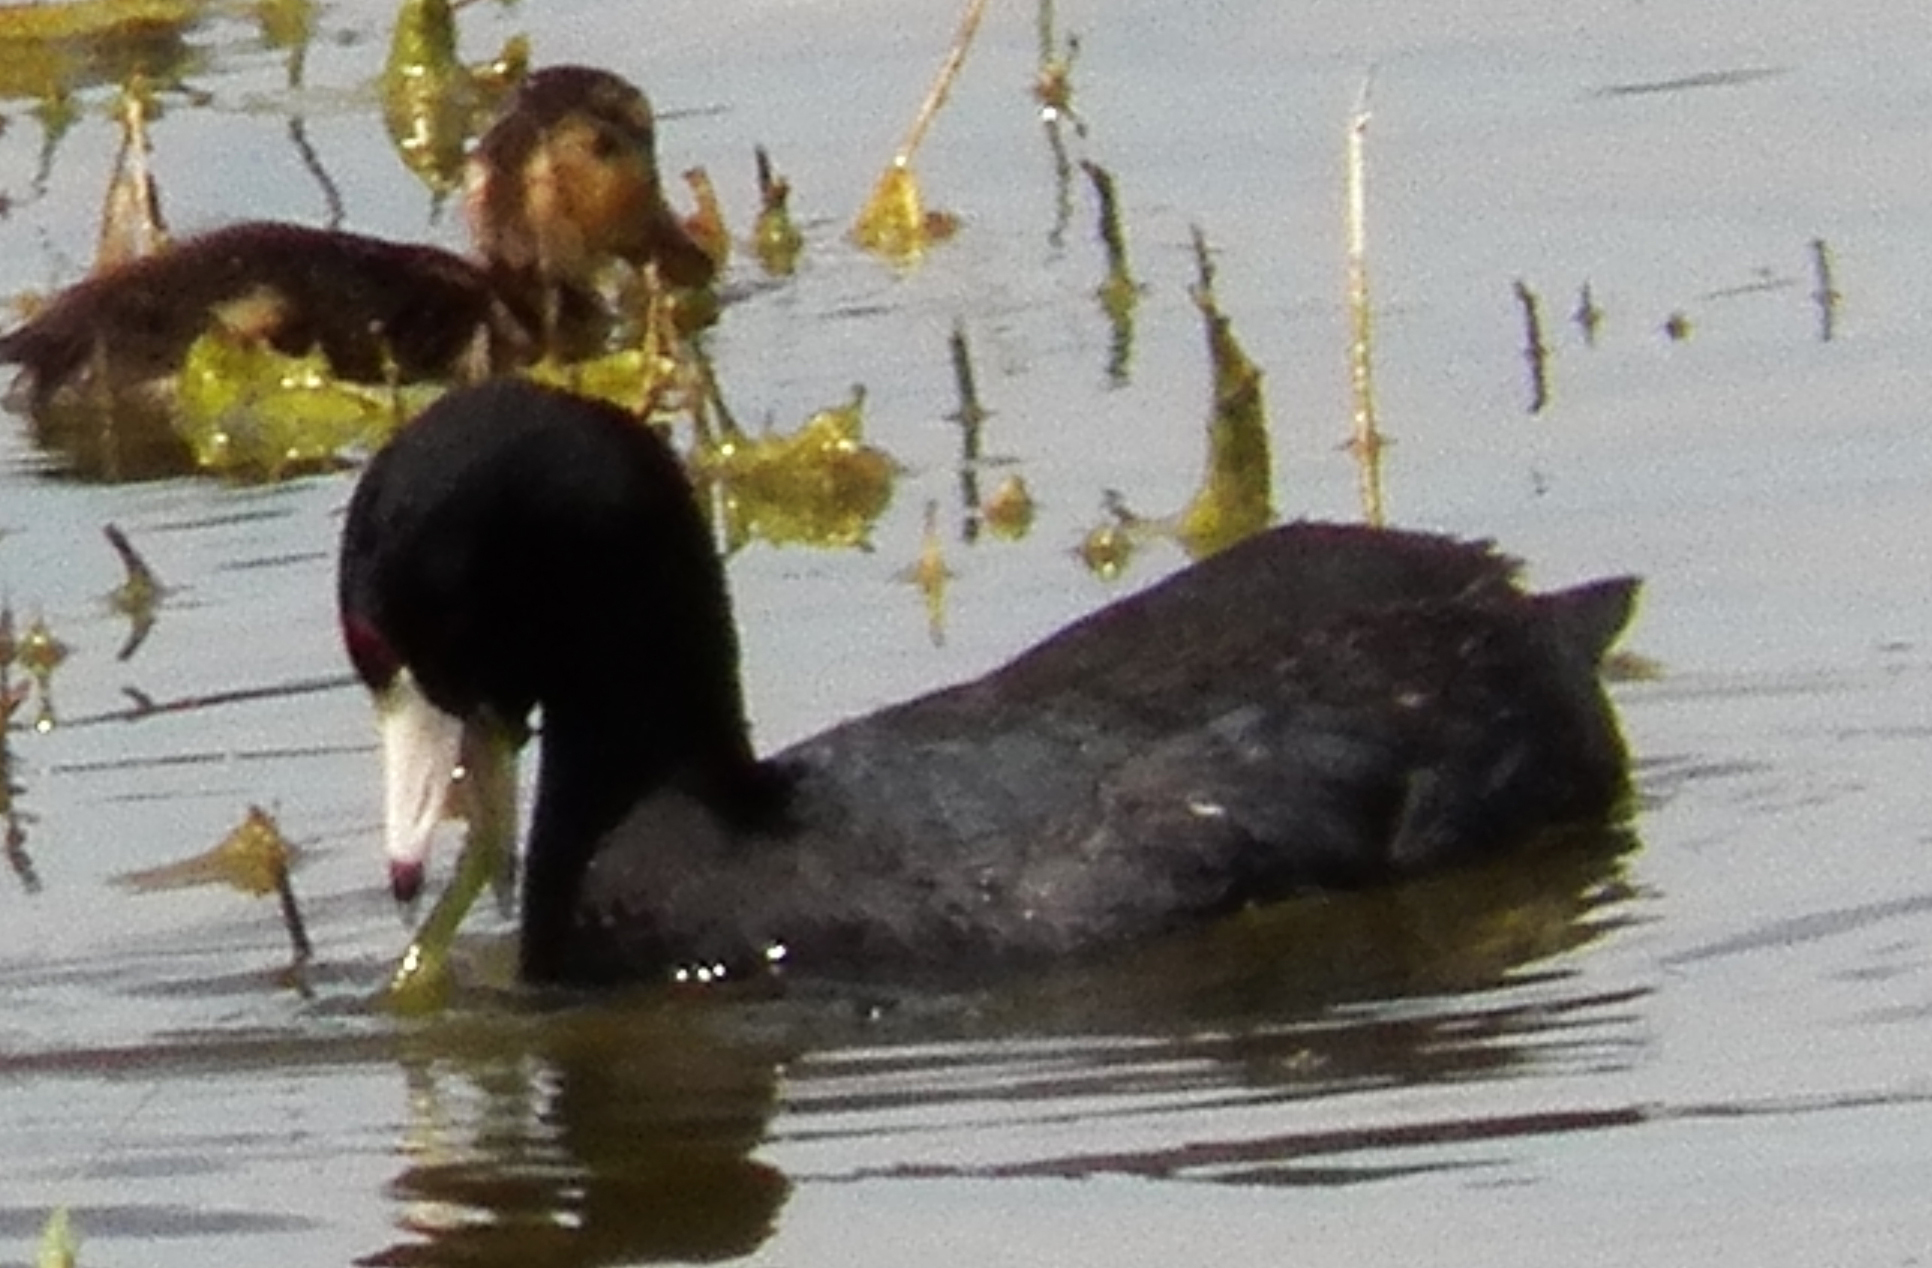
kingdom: Animalia
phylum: Chordata
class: Aves
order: Gruiformes
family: Rallidae
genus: Fulica
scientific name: Fulica americana
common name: American coot
